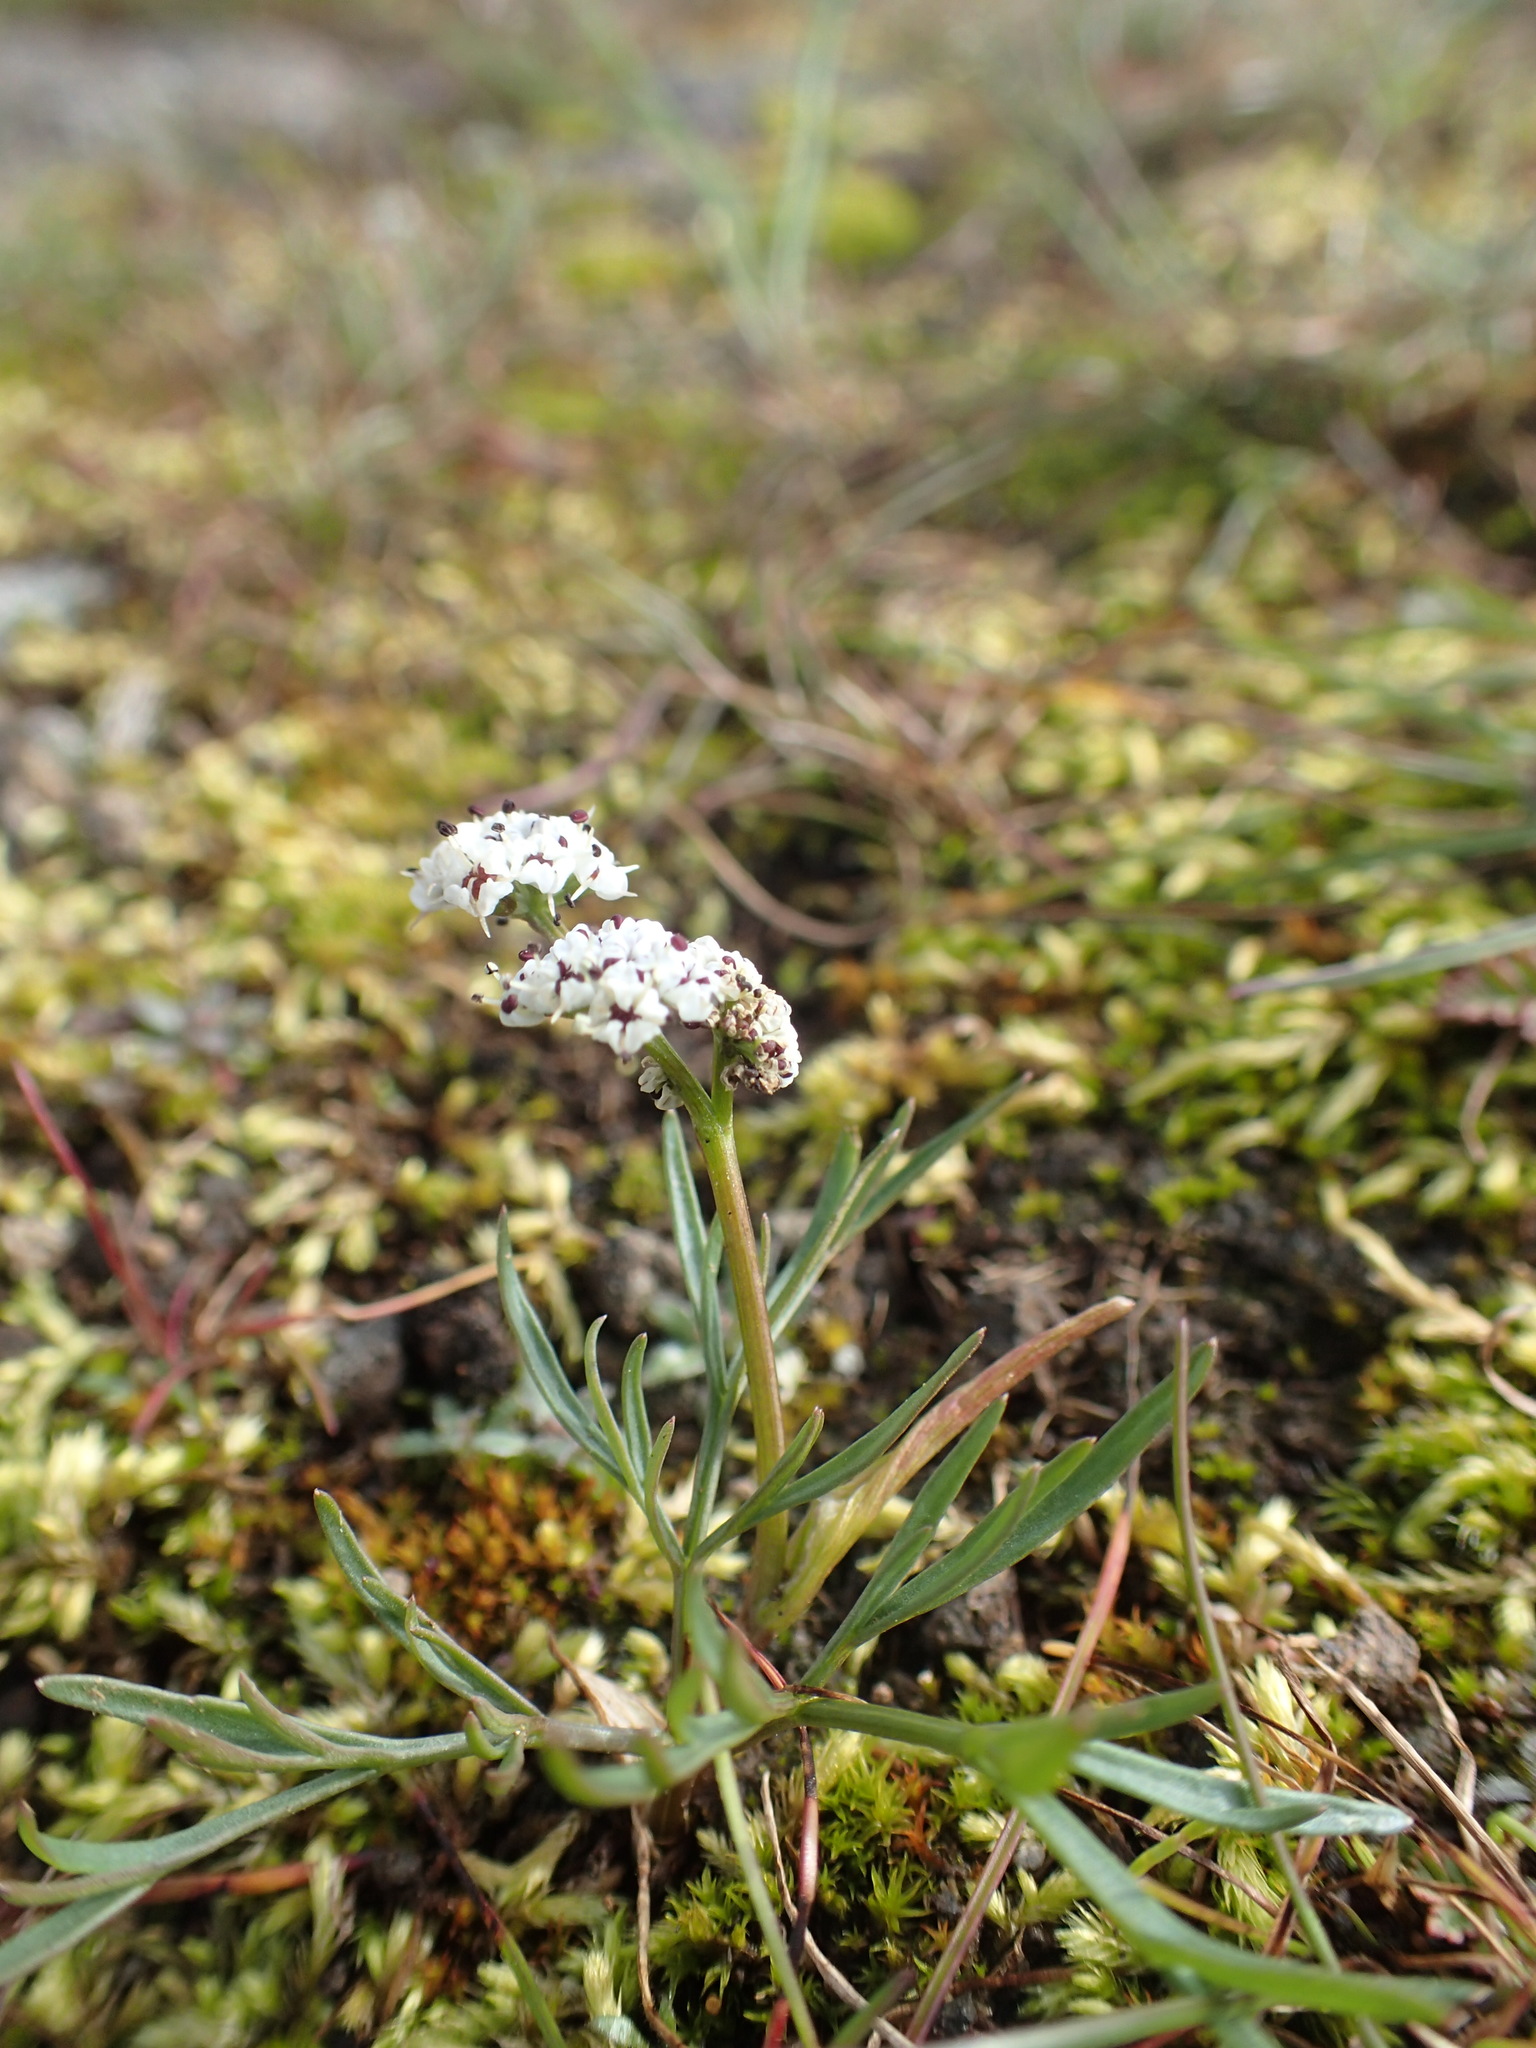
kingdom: Plantae
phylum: Tracheophyta
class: Magnoliopsida
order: Apiales
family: Apiaceae
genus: Lomatium
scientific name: Lomatium piperi
